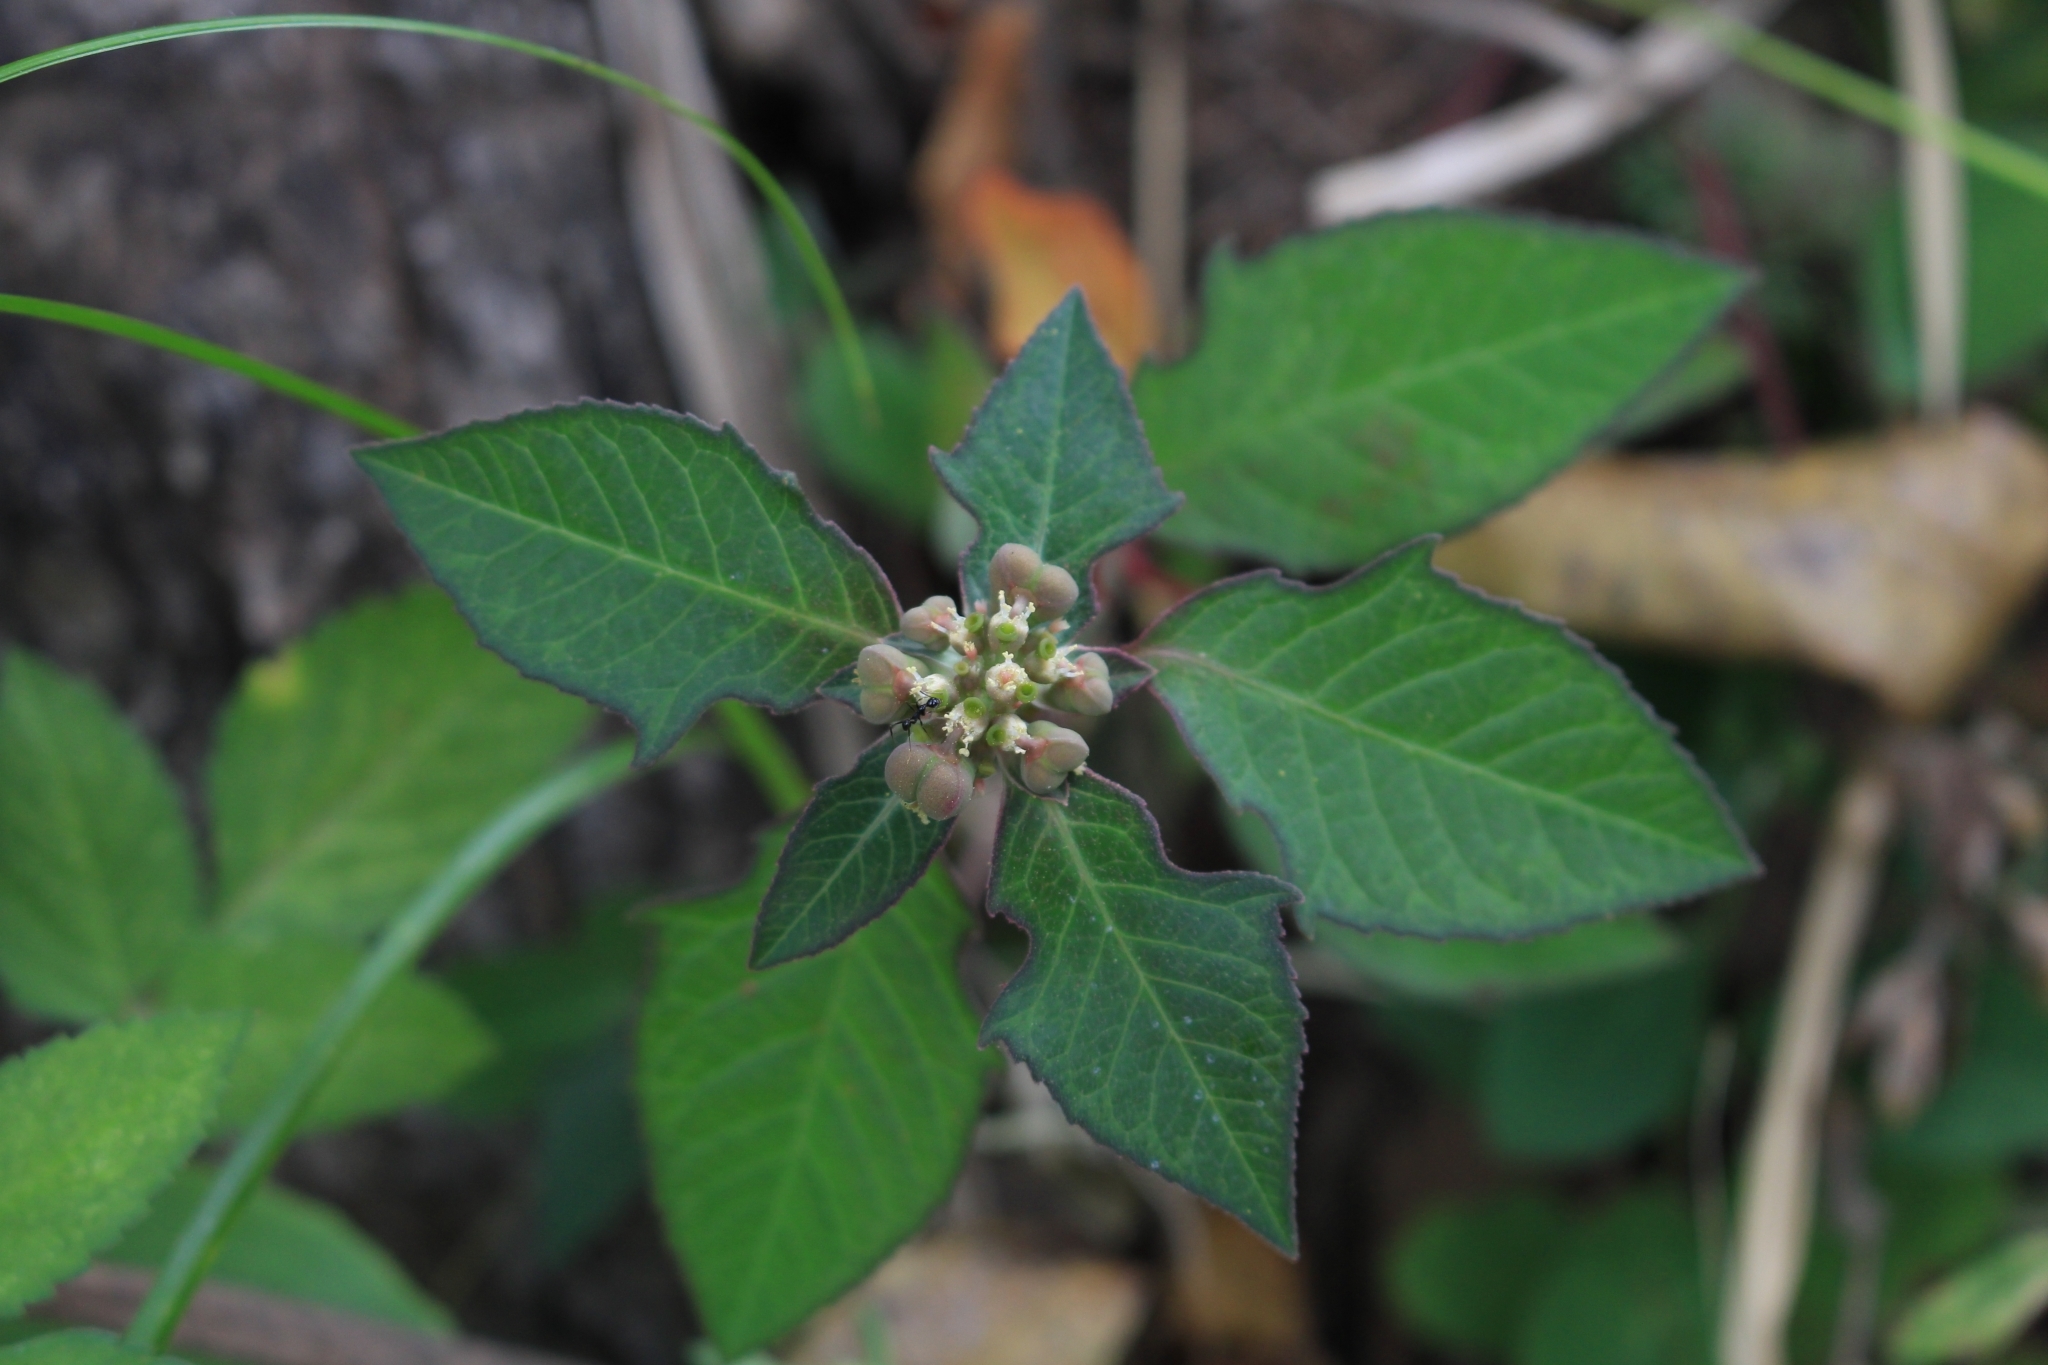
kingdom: Plantae
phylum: Tracheophyta
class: Magnoliopsida
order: Malpighiales
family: Euphorbiaceae
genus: Euphorbia
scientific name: Euphorbia heterophylla
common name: Mexican fireplant
